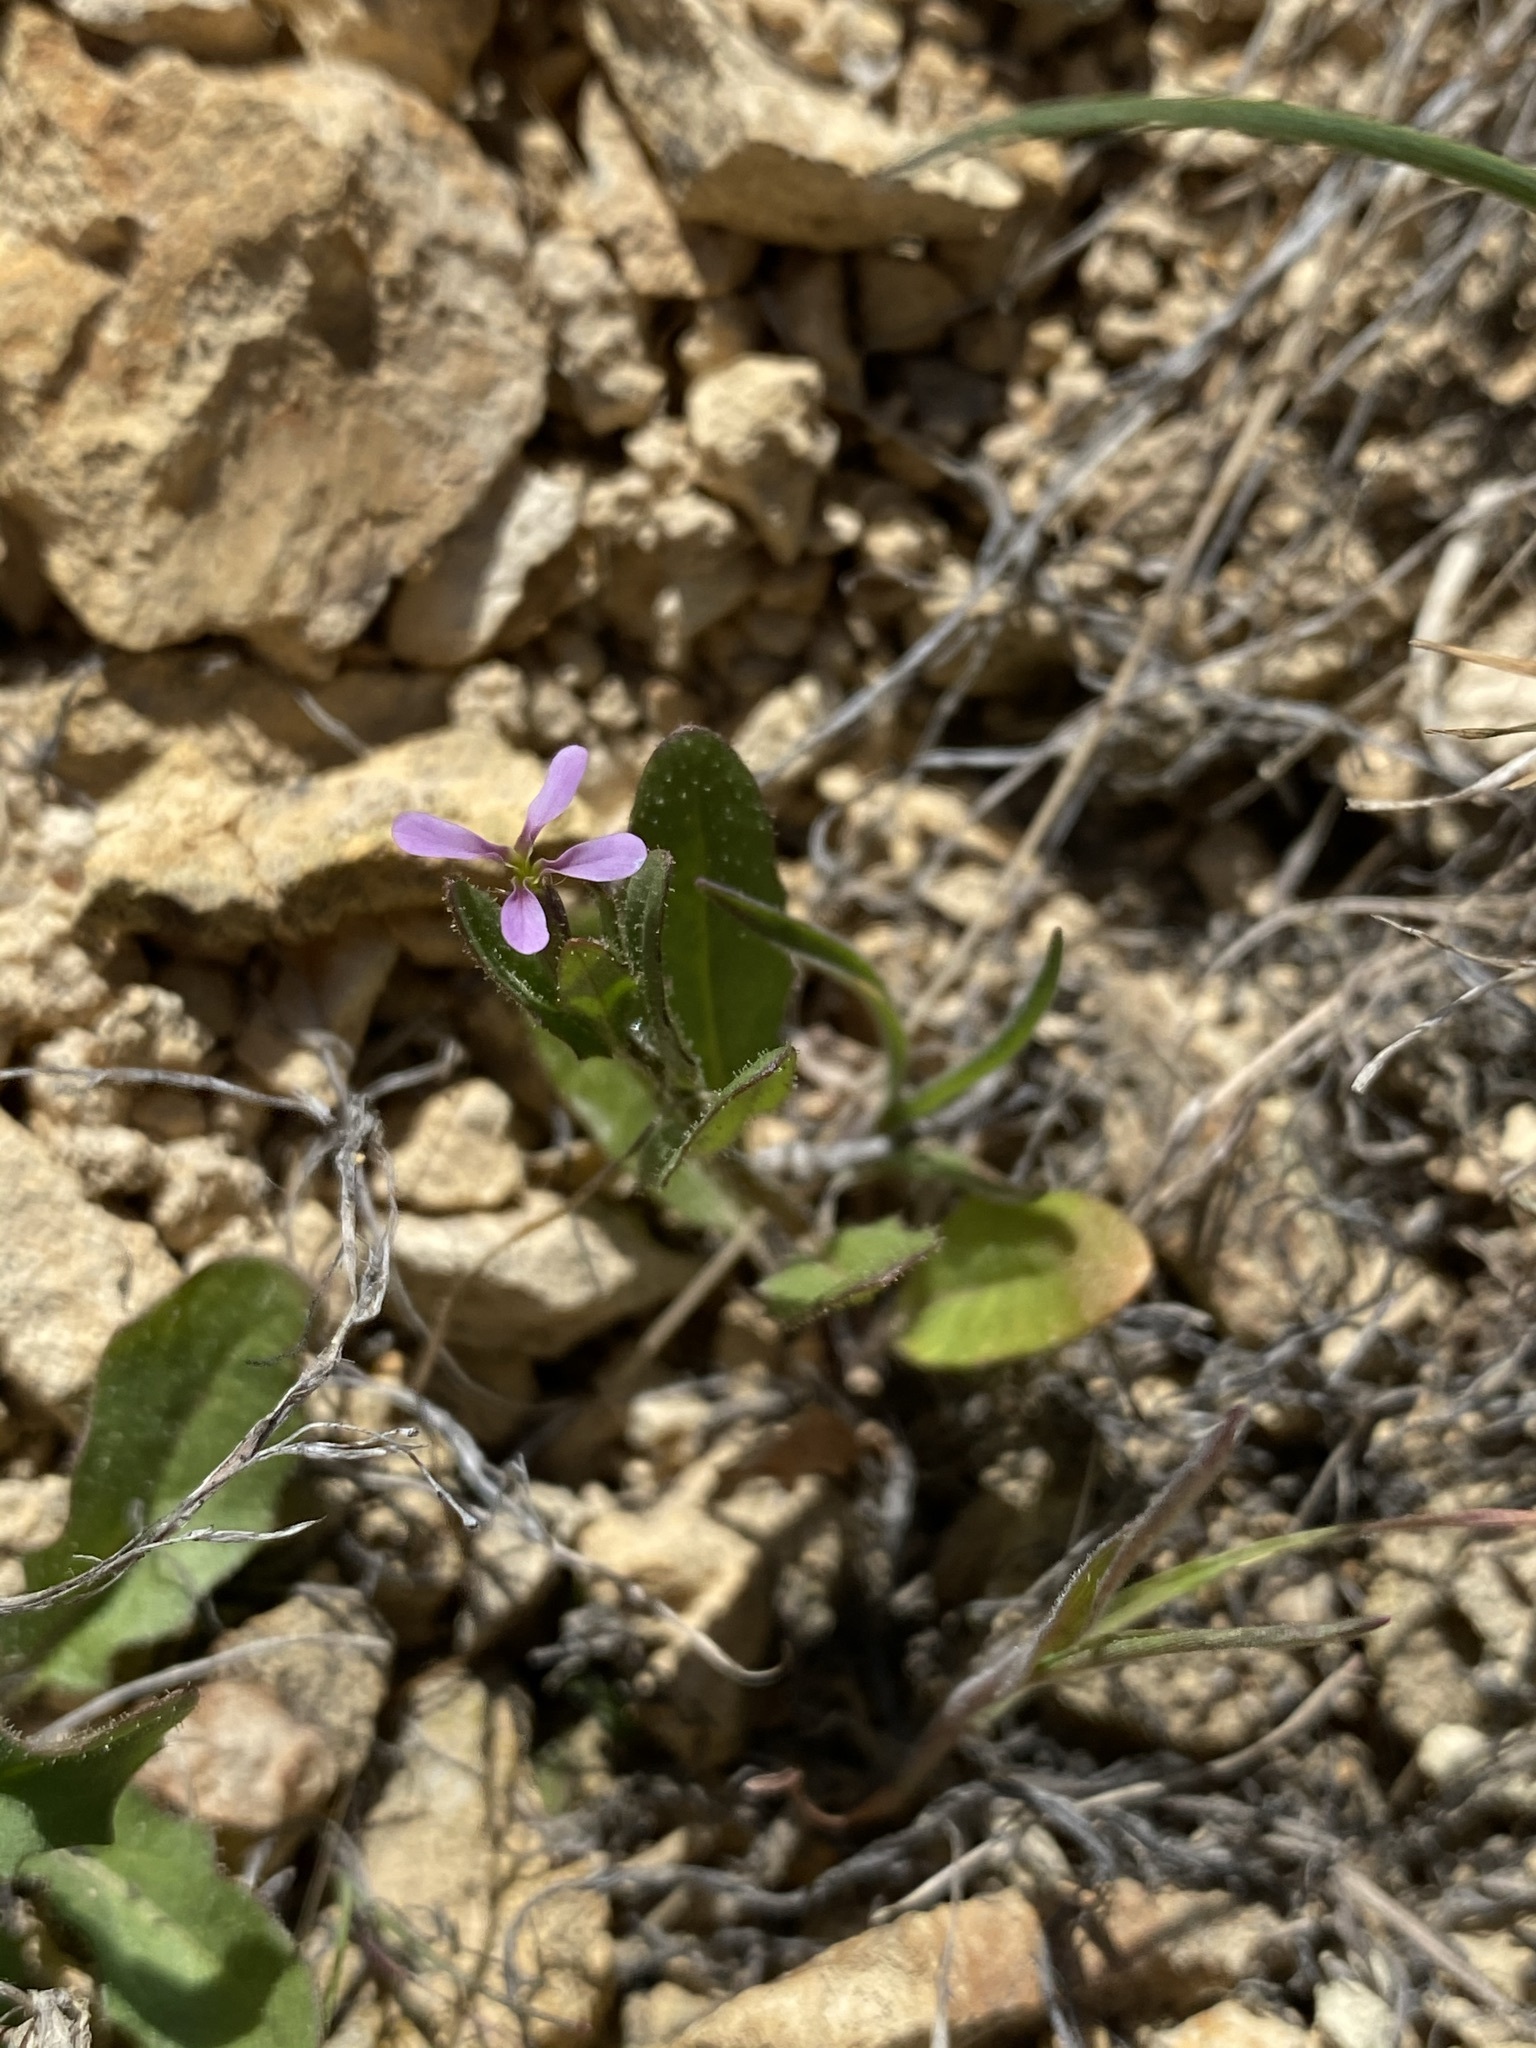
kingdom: Plantae
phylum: Tracheophyta
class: Magnoliopsida
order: Brassicales
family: Brassicaceae
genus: Chorispora
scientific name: Chorispora tenella
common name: Crossflower
